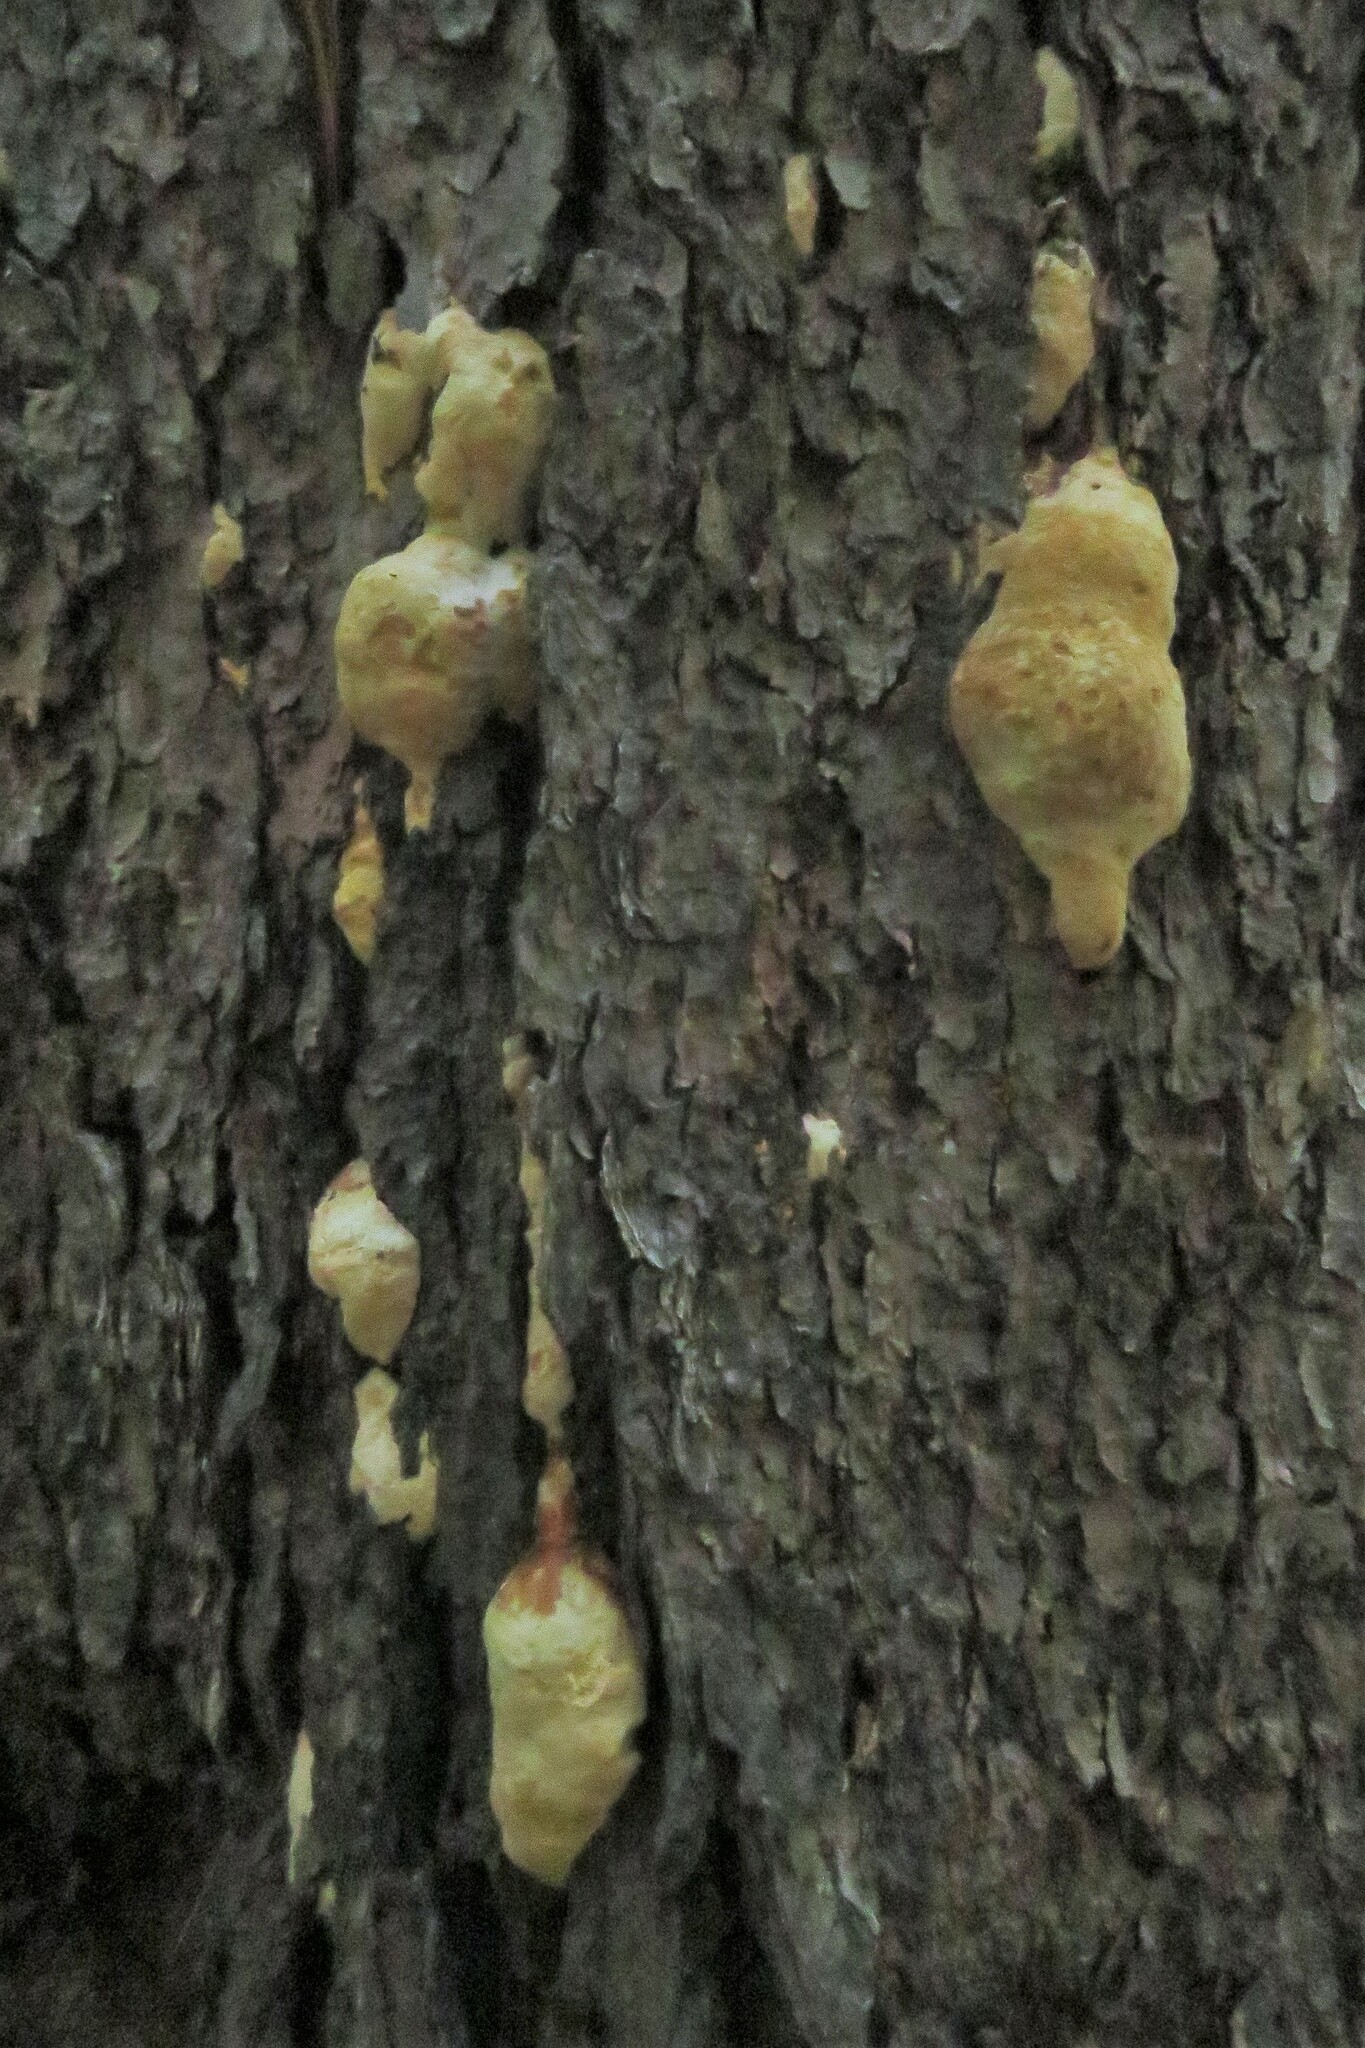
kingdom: Fungi
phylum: Basidiomycota
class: Agaricomycetes
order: Polyporales
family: Fomitopsidaceae
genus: Fomitopsis
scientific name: Fomitopsis mounceae
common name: Northern red belt
